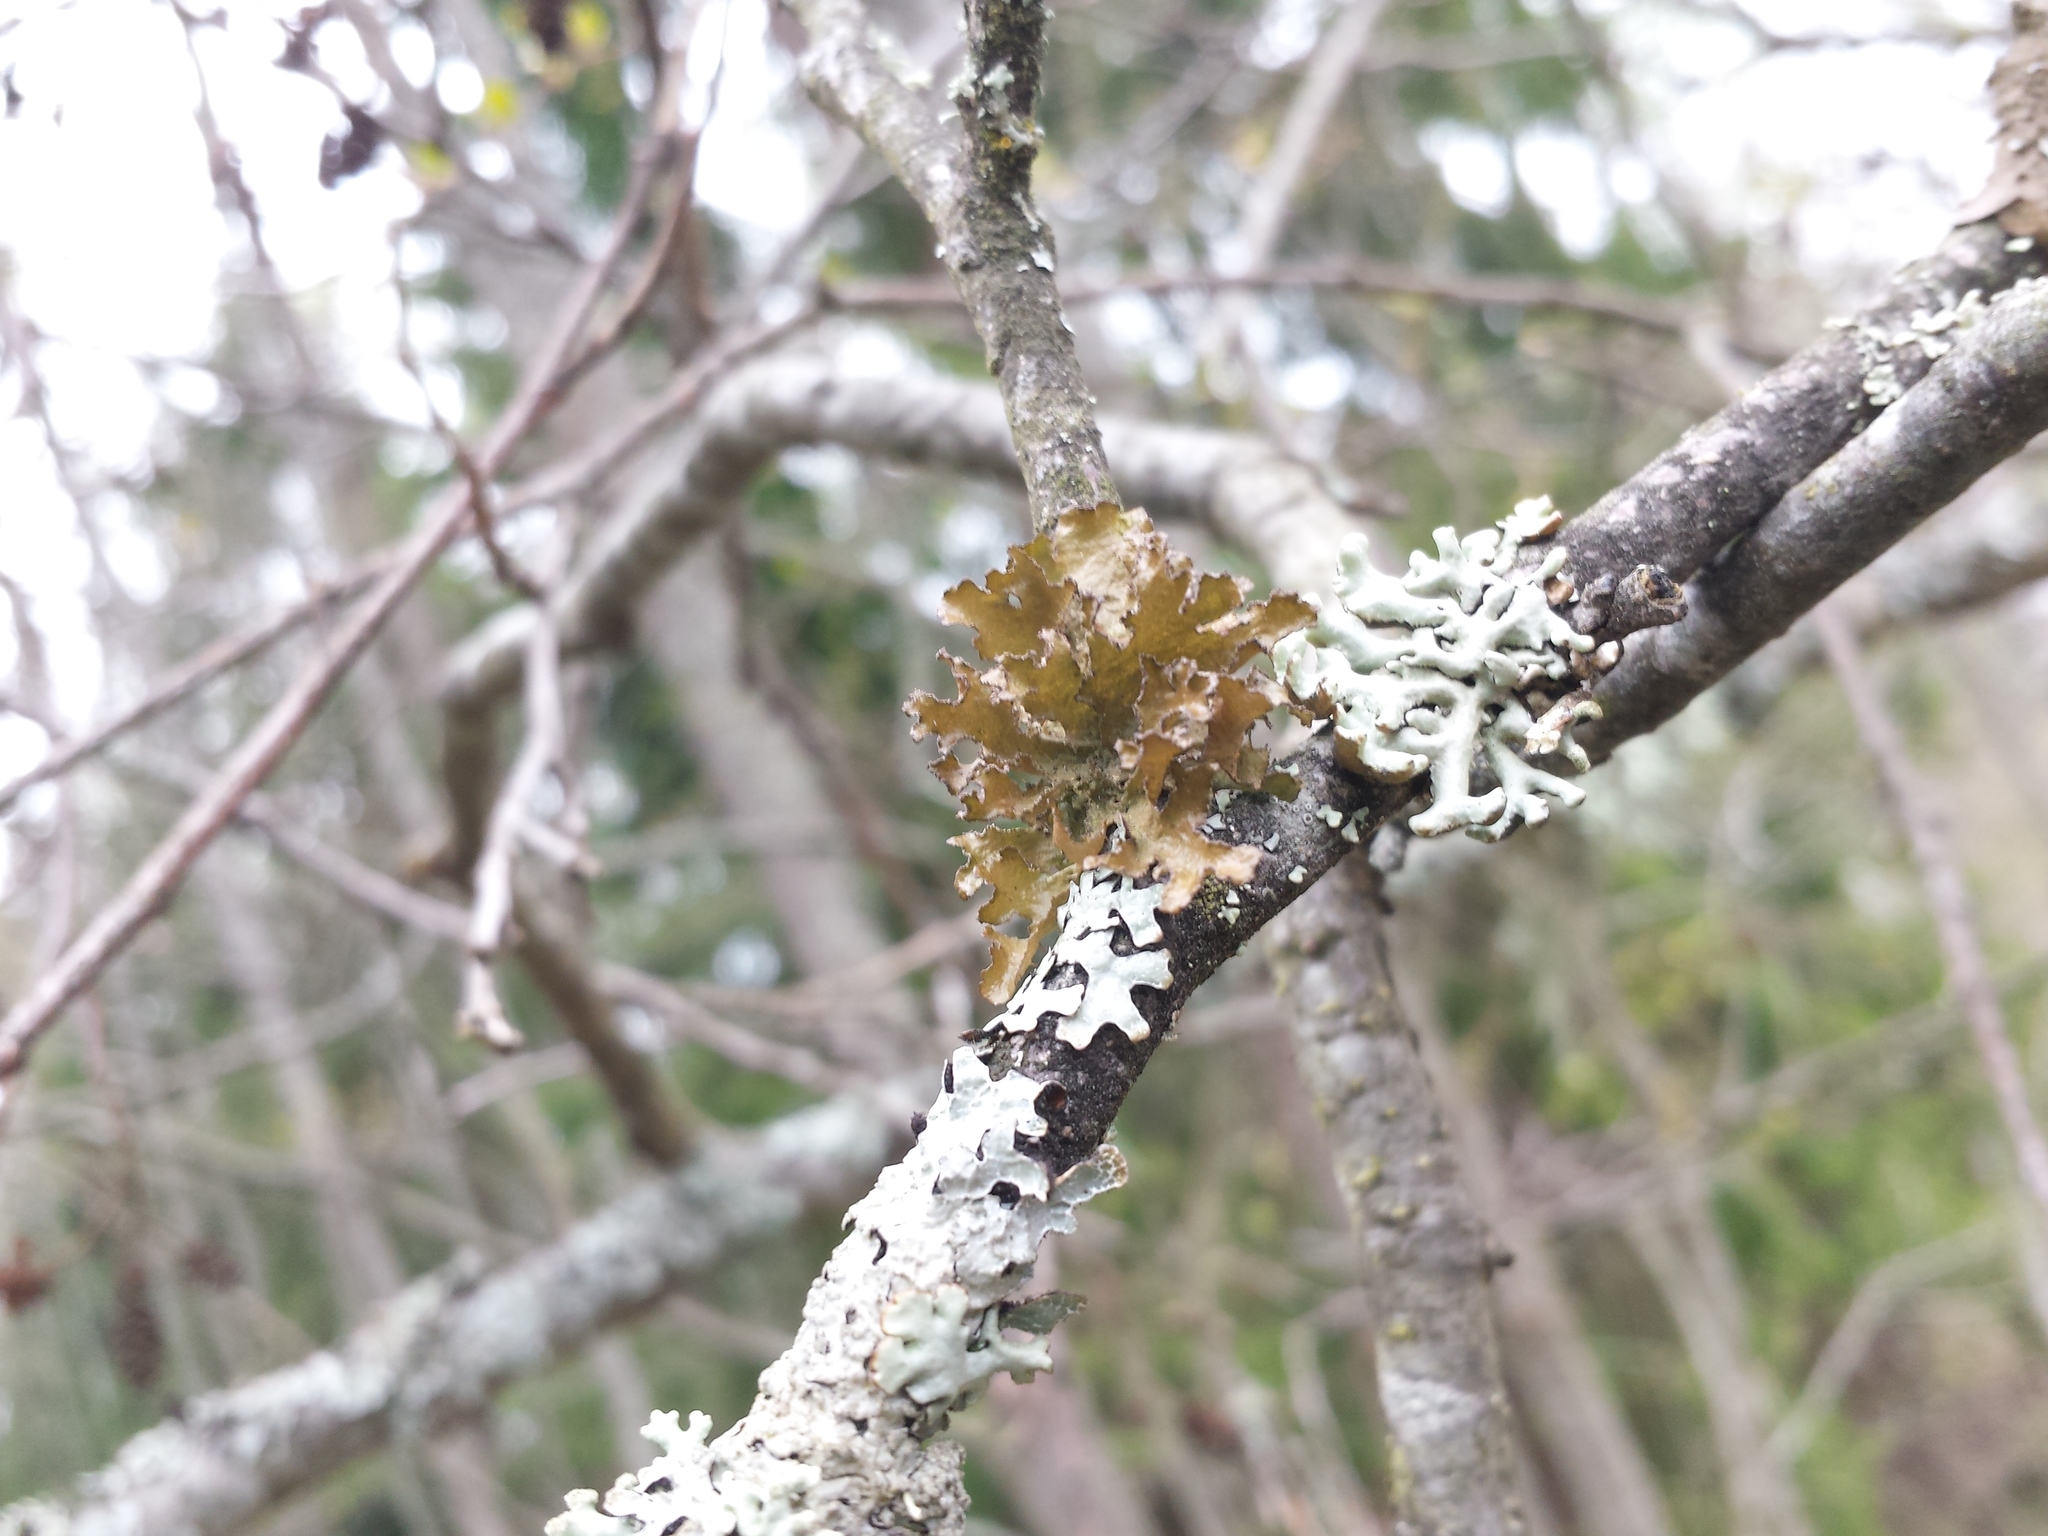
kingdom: Fungi
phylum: Ascomycota
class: Lecanoromycetes
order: Lecanorales
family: Parmeliaceae
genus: Nephromopsis
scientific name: Nephromopsis chlorophylla
